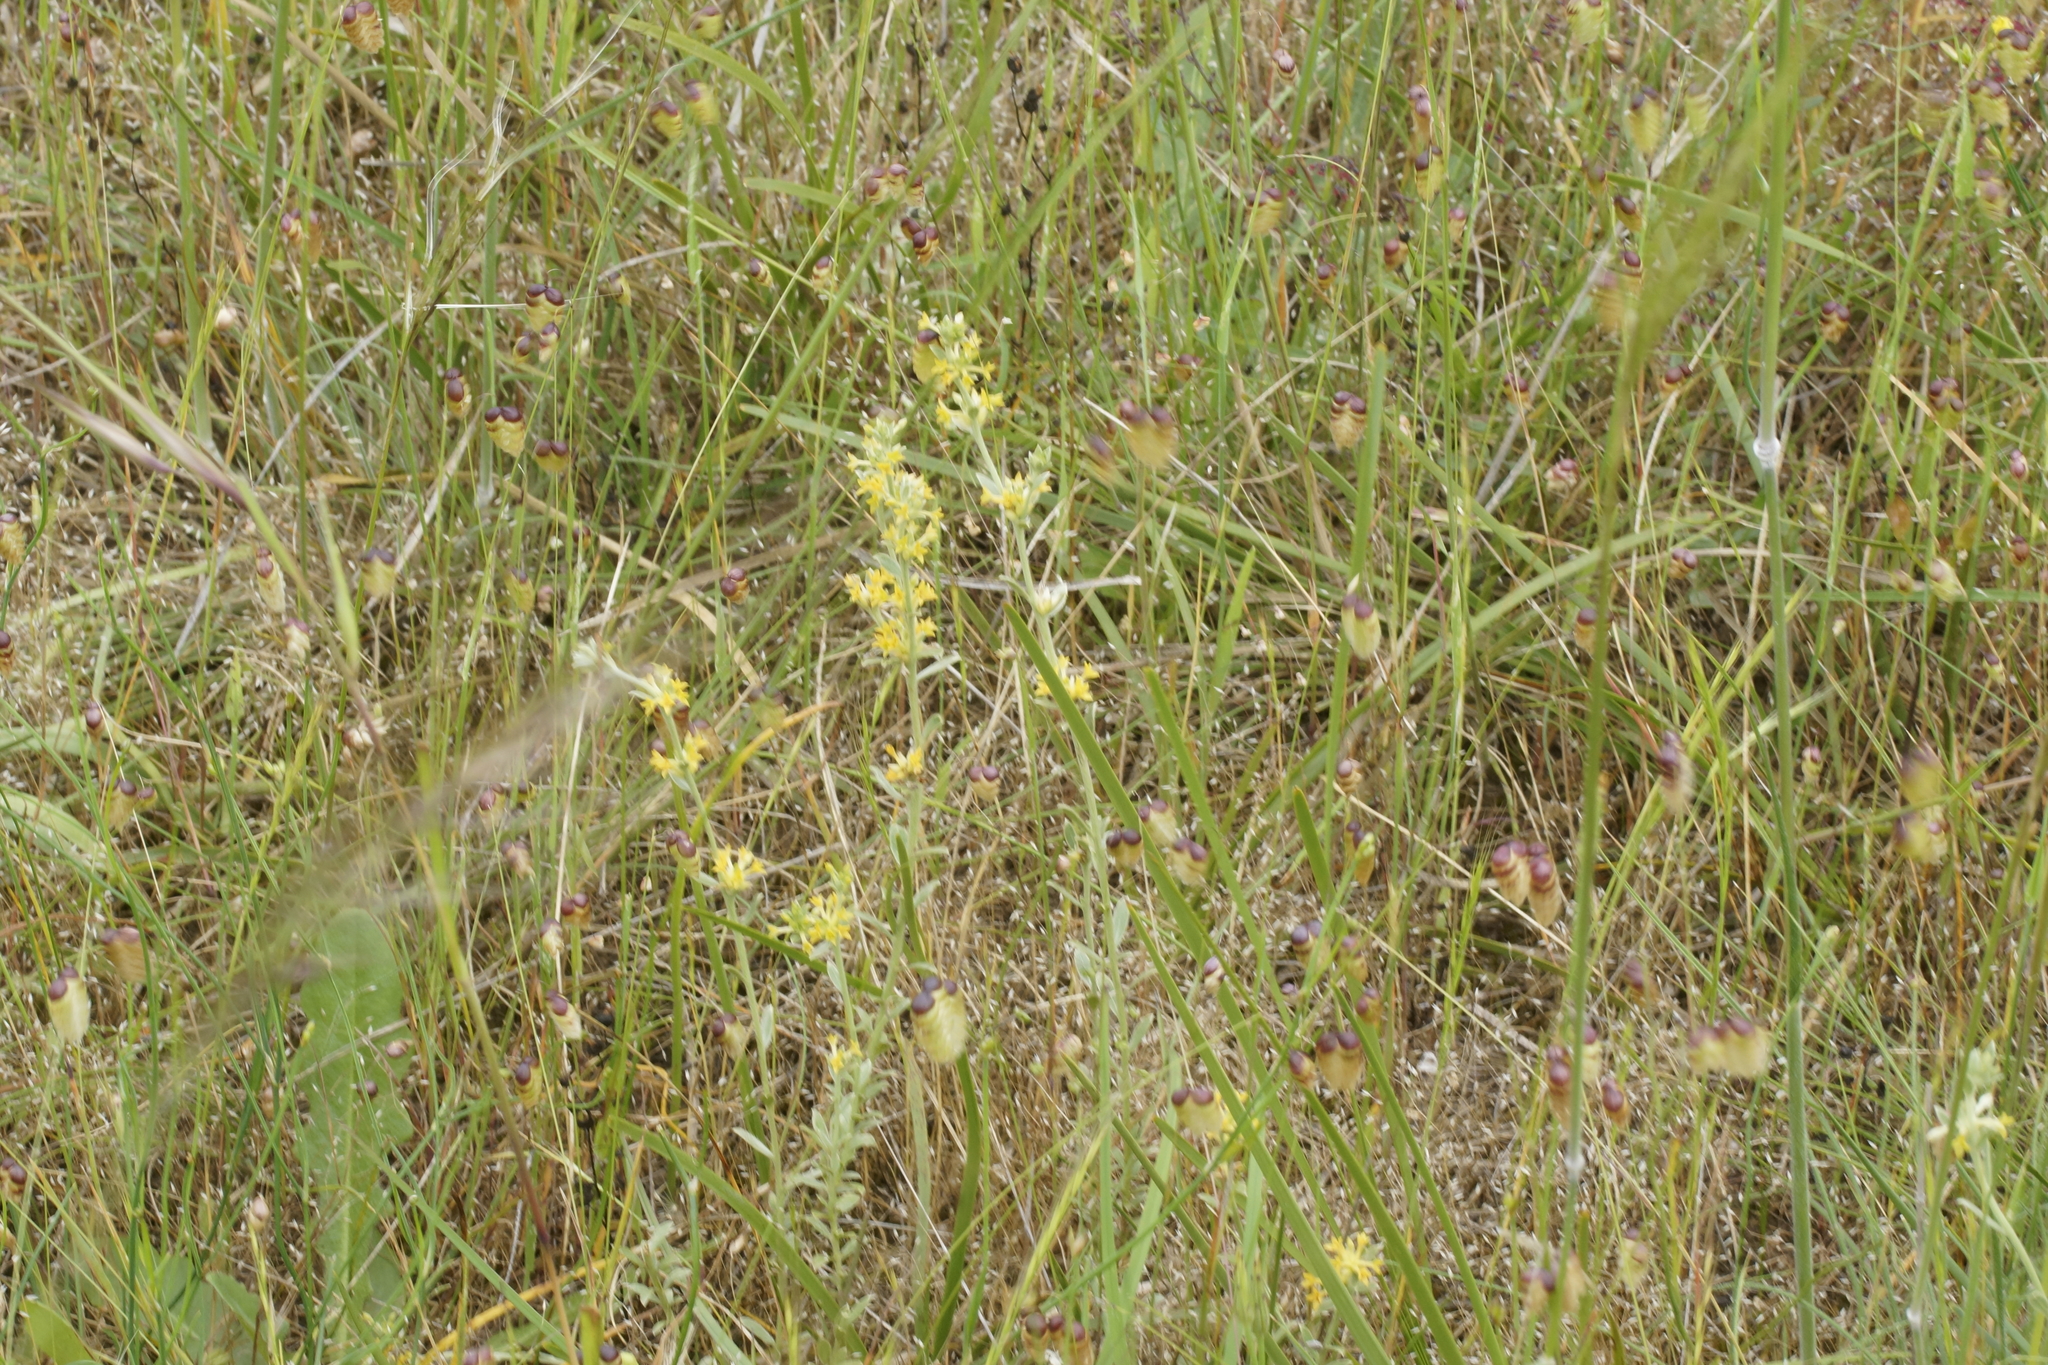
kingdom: Plantae
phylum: Tracheophyta
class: Magnoliopsida
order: Malvales
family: Thymelaeaceae
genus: Pimelea
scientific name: Pimelea curviflora
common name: Curved riceflower
